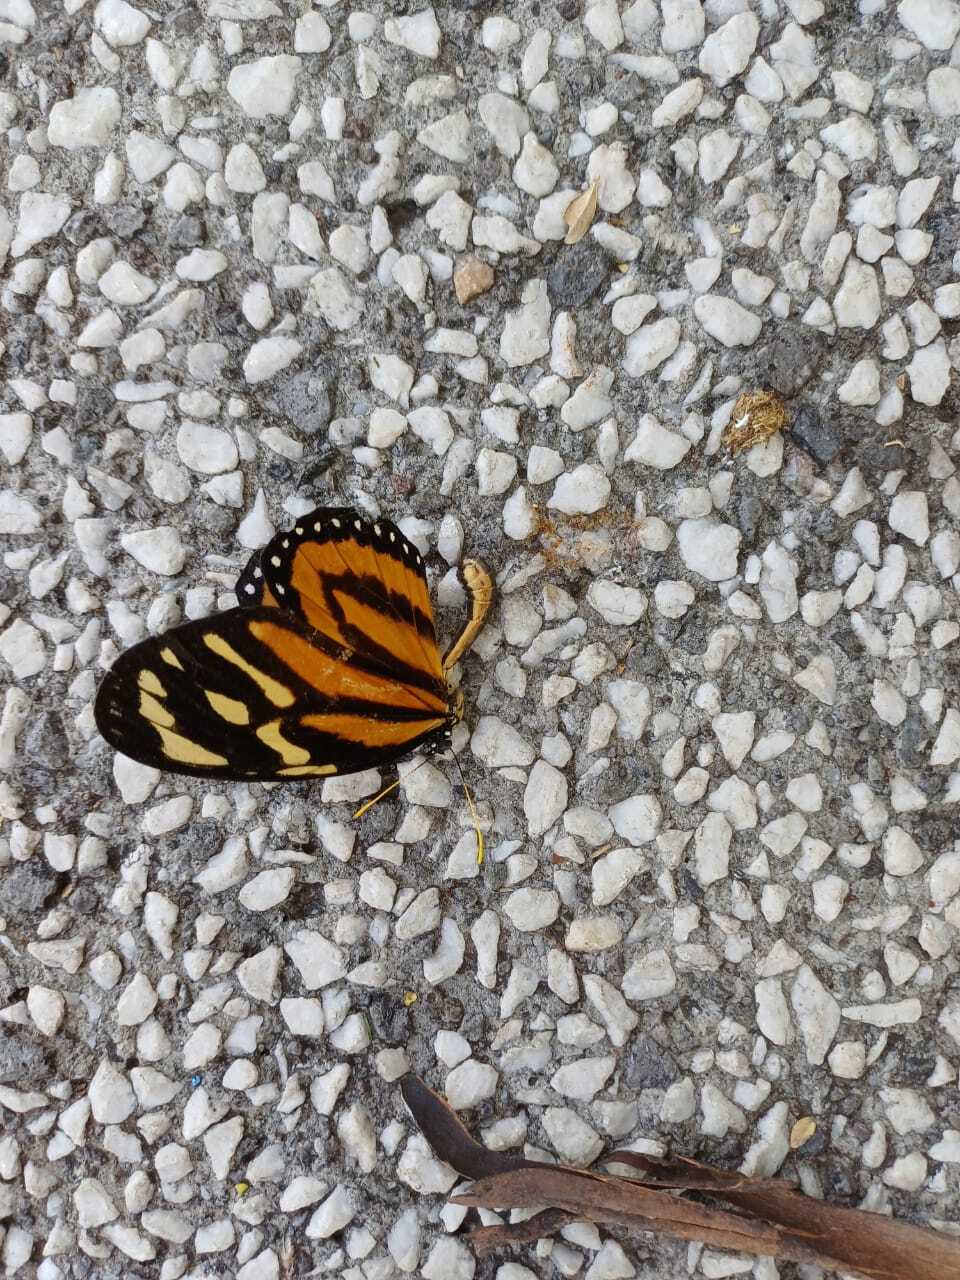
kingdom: Animalia
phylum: Arthropoda
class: Insecta
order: Lepidoptera
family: Nymphalidae
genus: Lycorea
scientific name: Lycorea cleobaea
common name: Tiger mimic-queen
